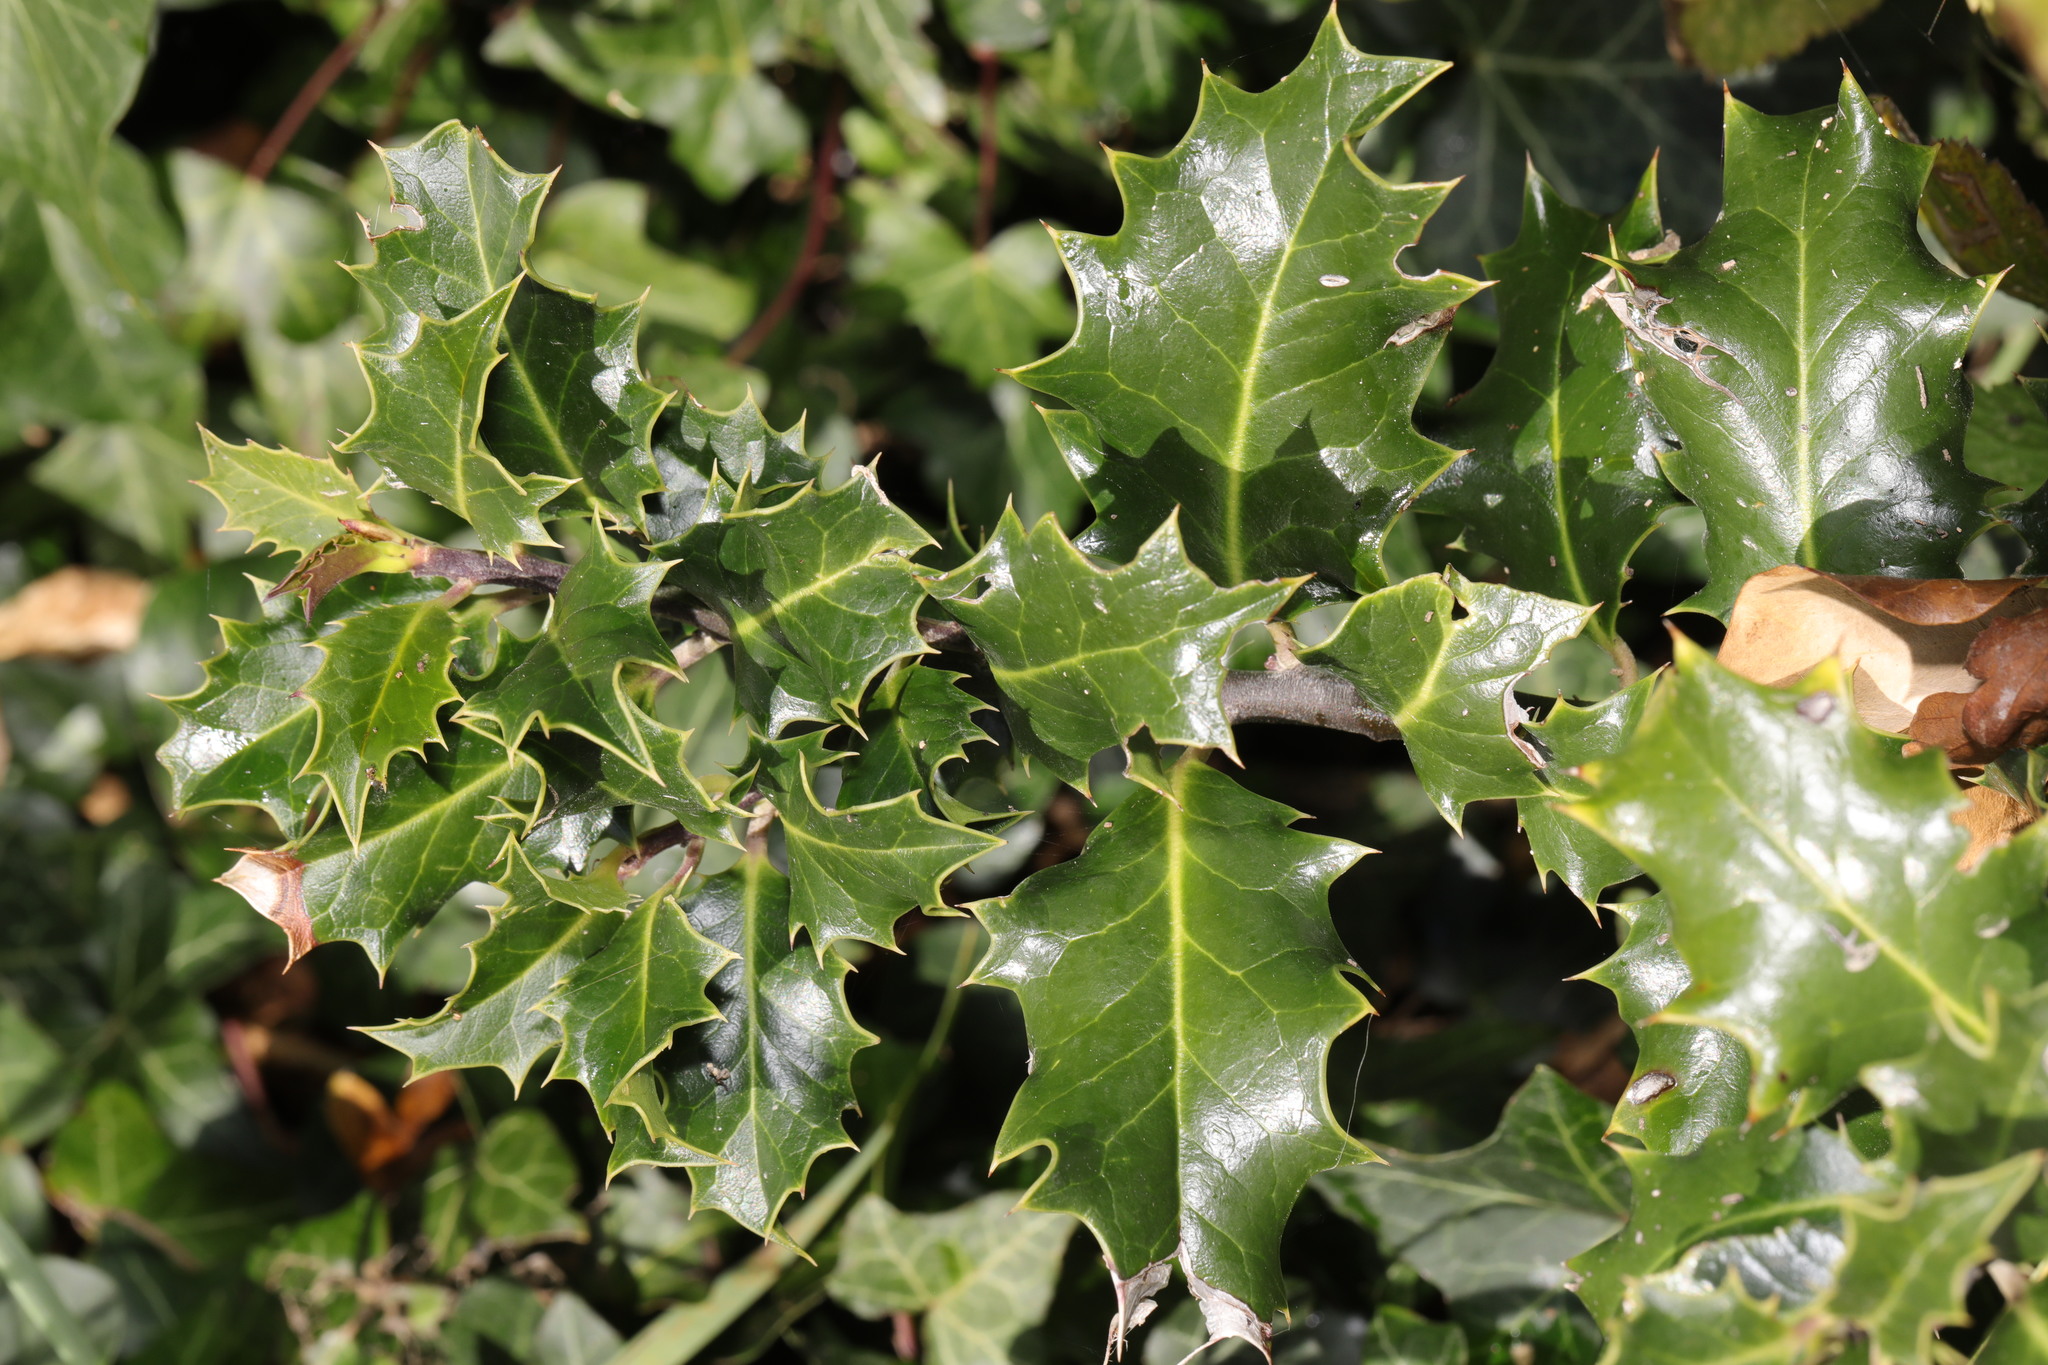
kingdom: Plantae
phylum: Tracheophyta
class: Magnoliopsida
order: Aquifoliales
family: Aquifoliaceae
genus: Ilex
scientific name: Ilex aquifolium
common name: English holly
